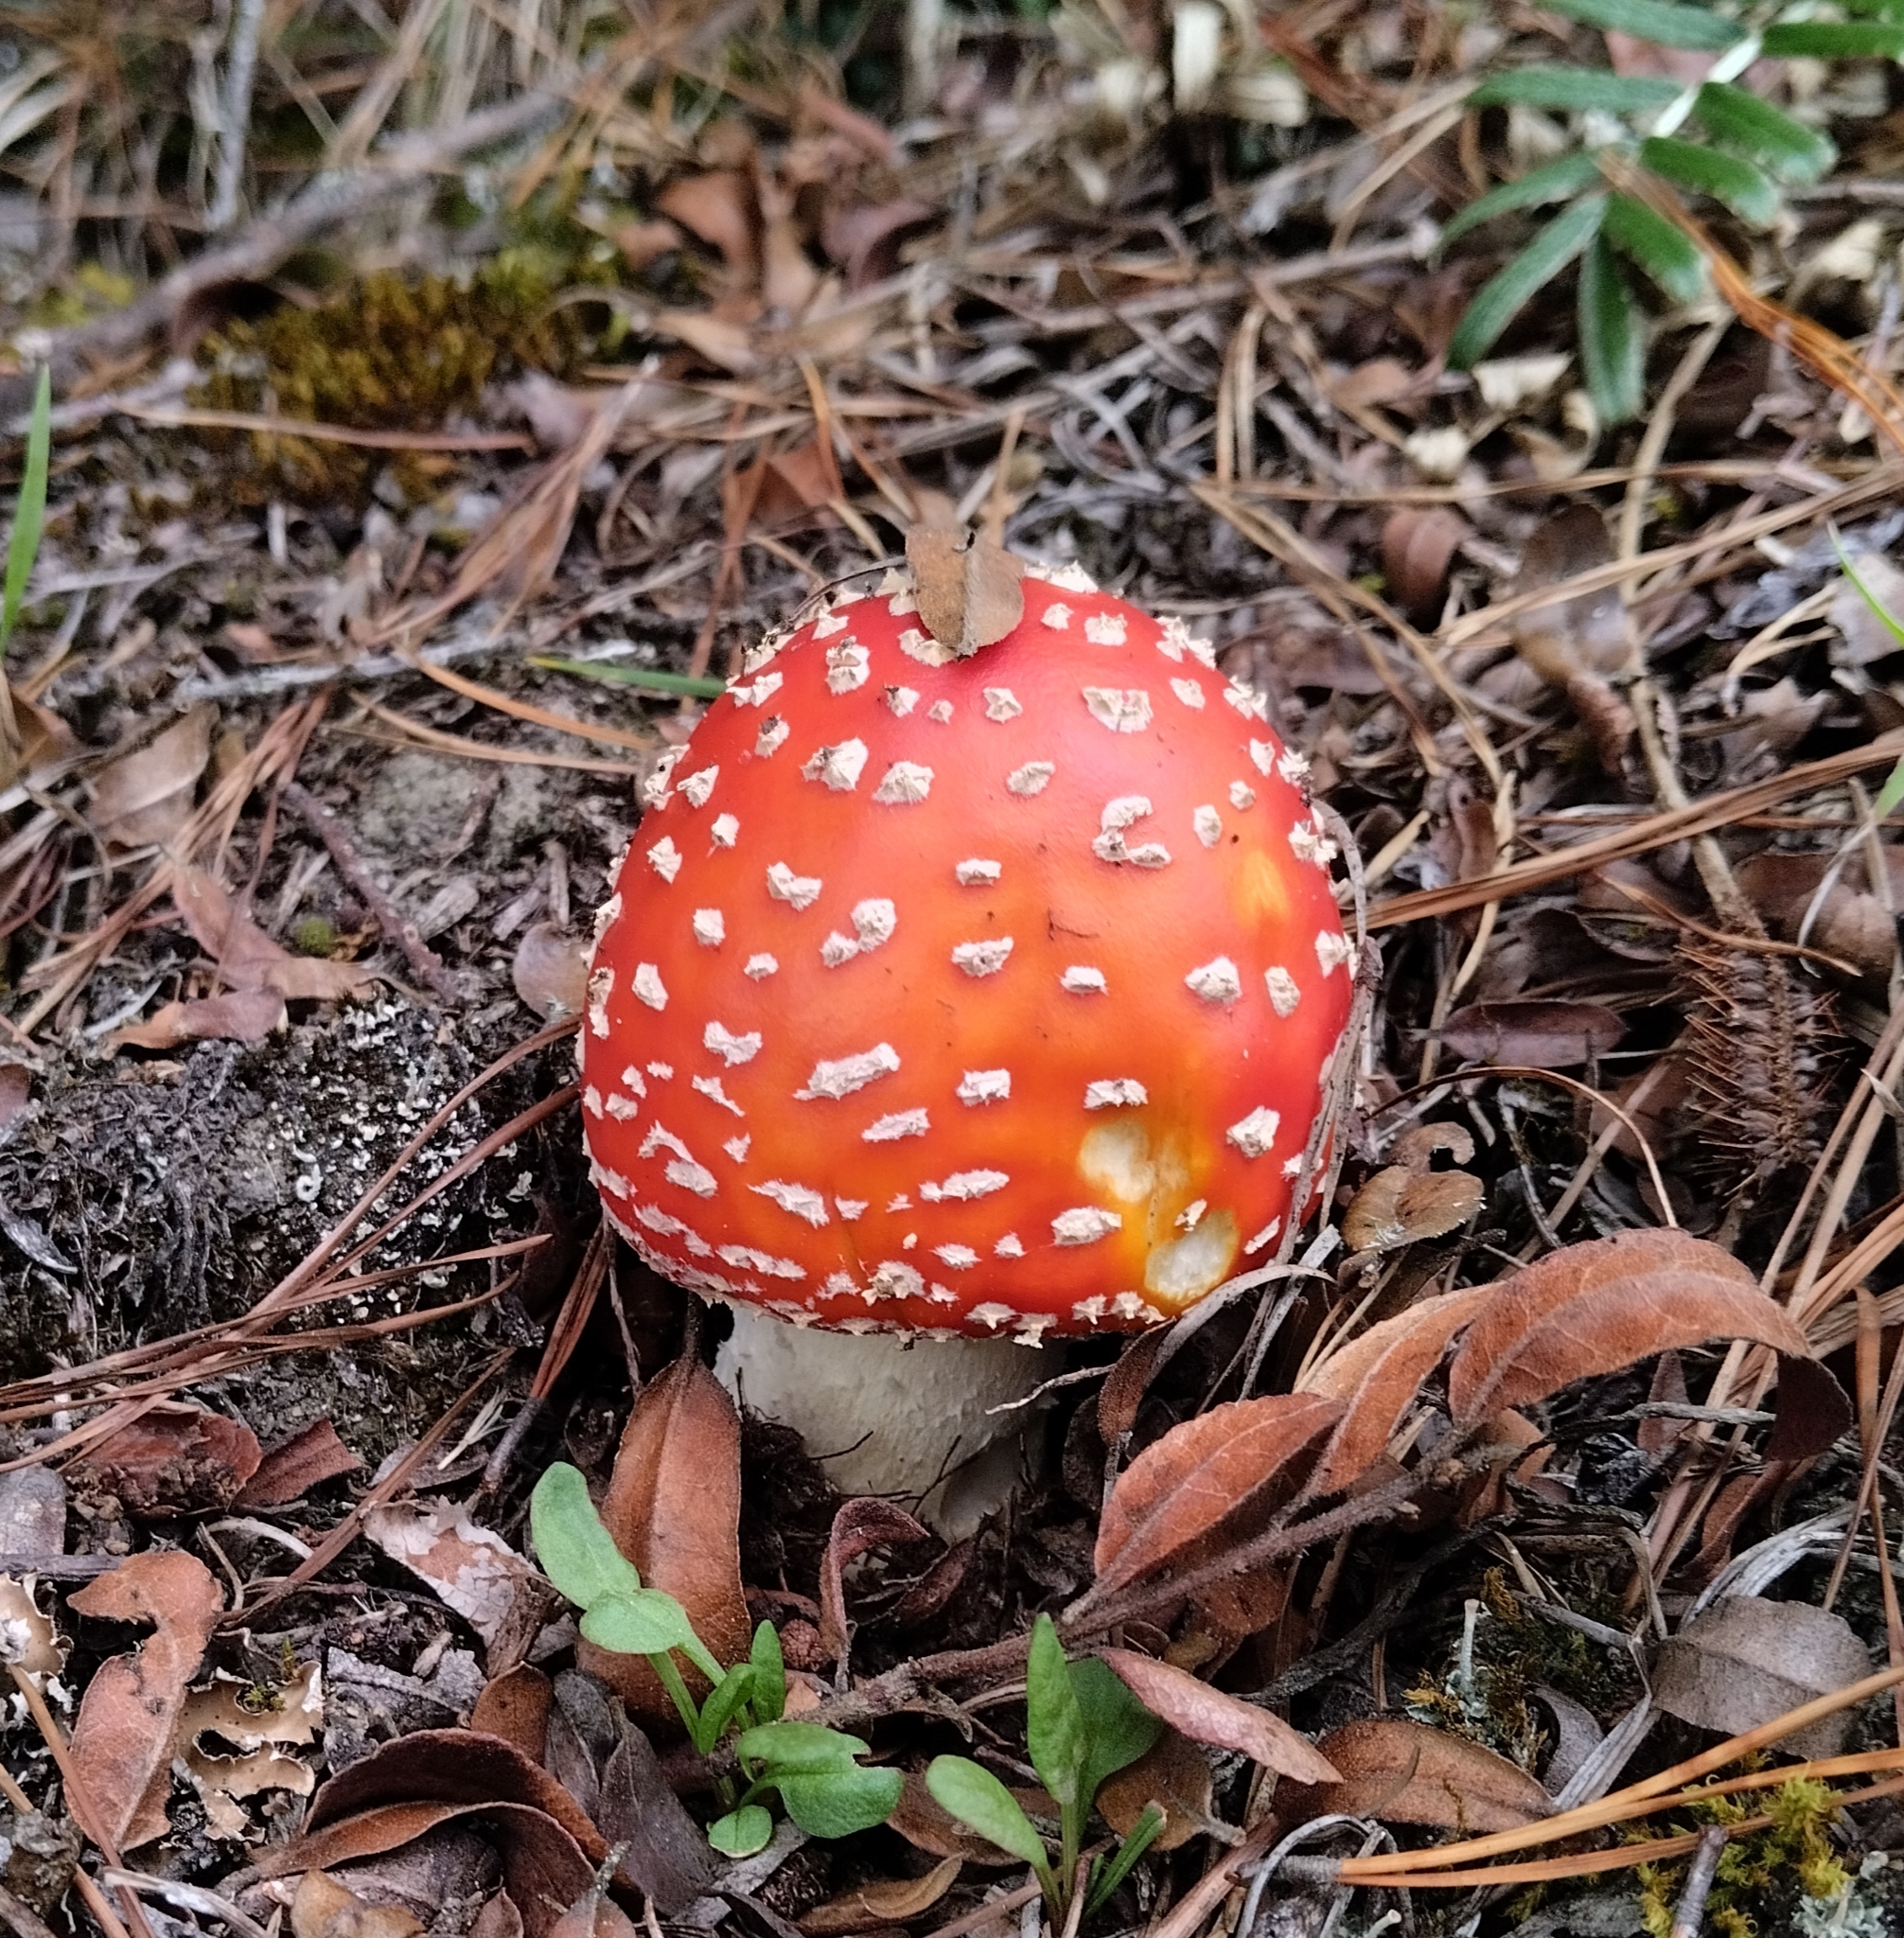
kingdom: Fungi
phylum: Basidiomycota
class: Agaricomycetes
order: Agaricales
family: Amanitaceae
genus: Amanita
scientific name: Amanita muscaria
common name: Fly agaric
